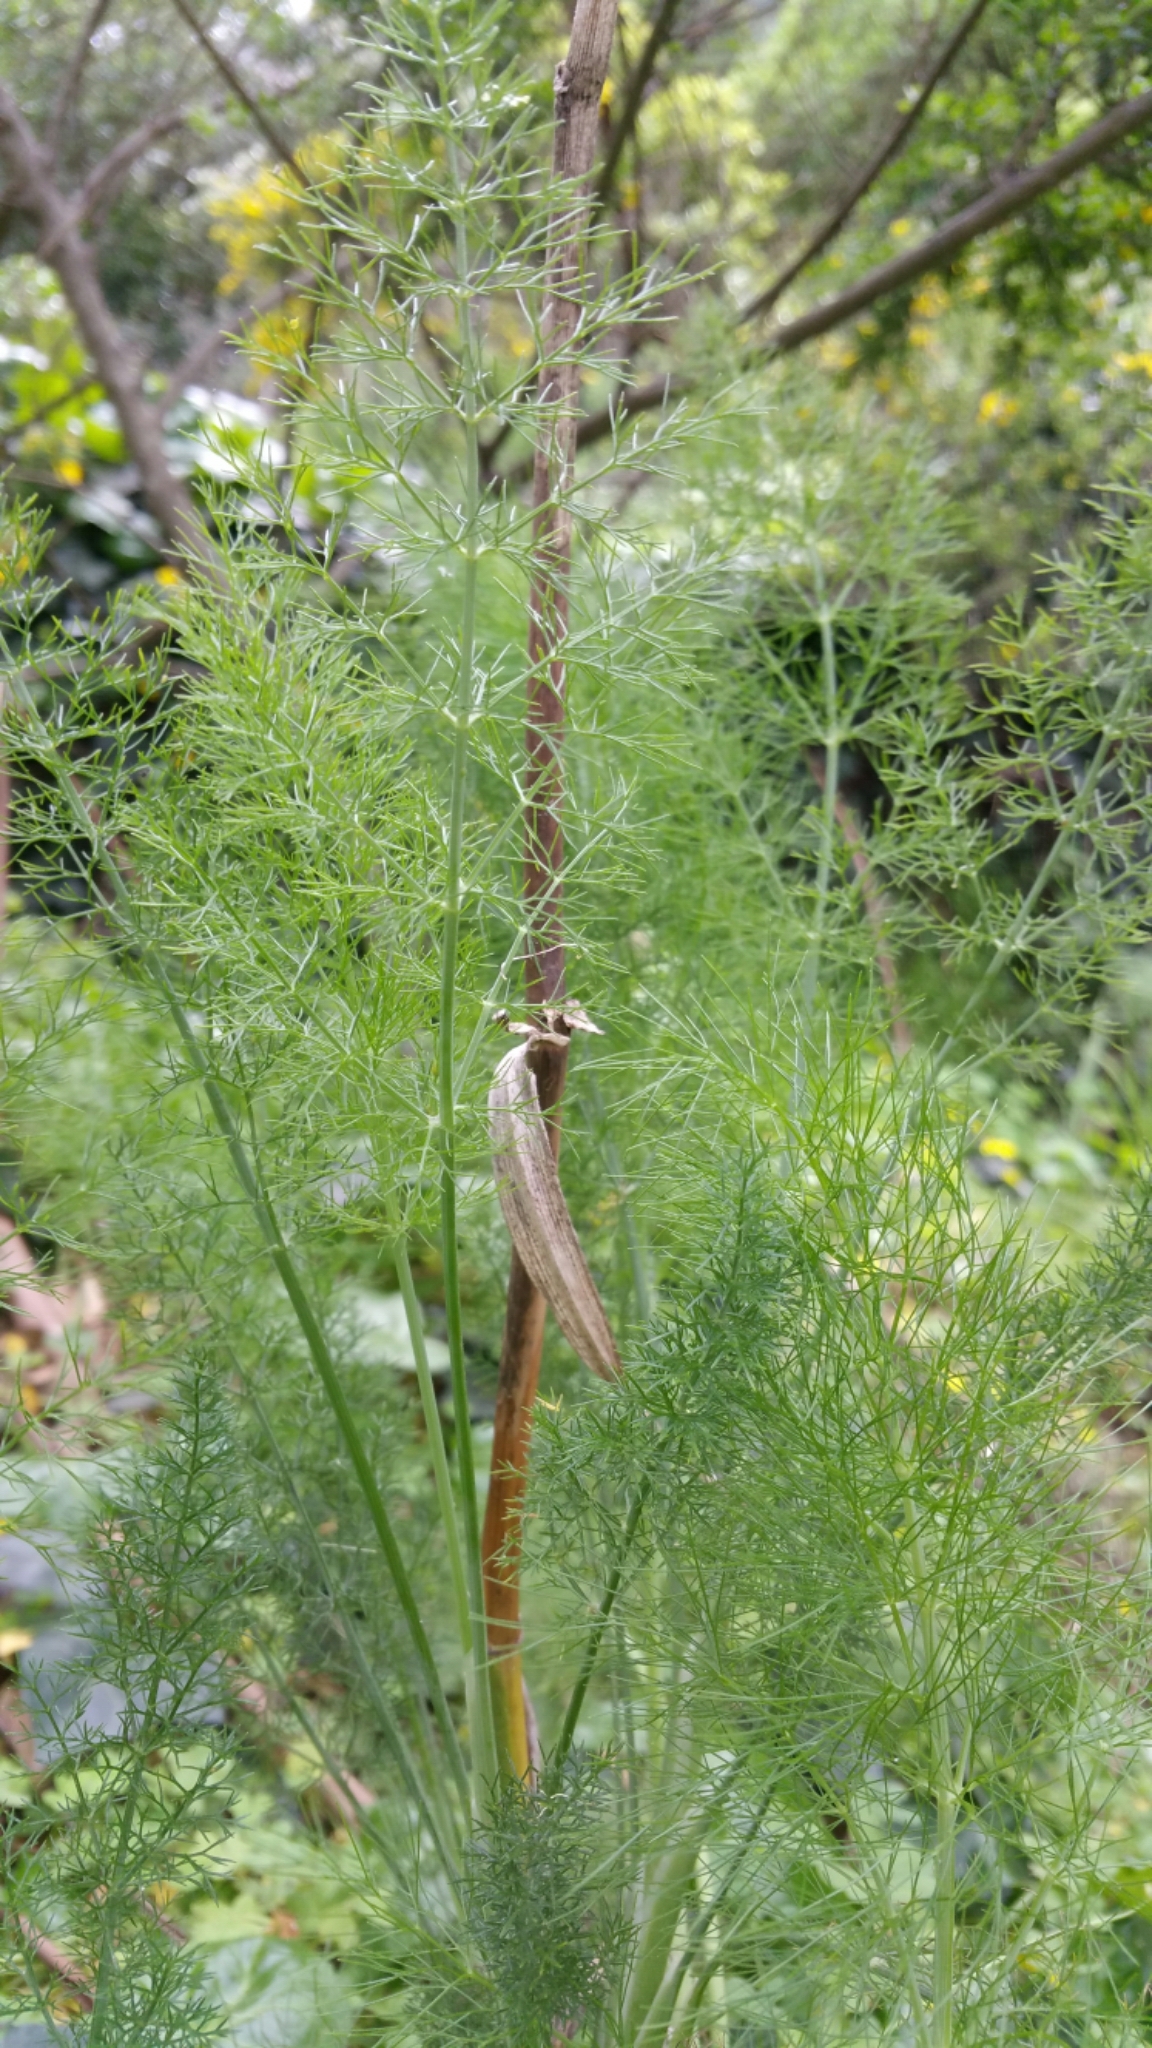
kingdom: Plantae
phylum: Tracheophyta
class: Magnoliopsida
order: Apiales
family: Apiaceae
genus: Foeniculum
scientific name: Foeniculum vulgare
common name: Fennel
